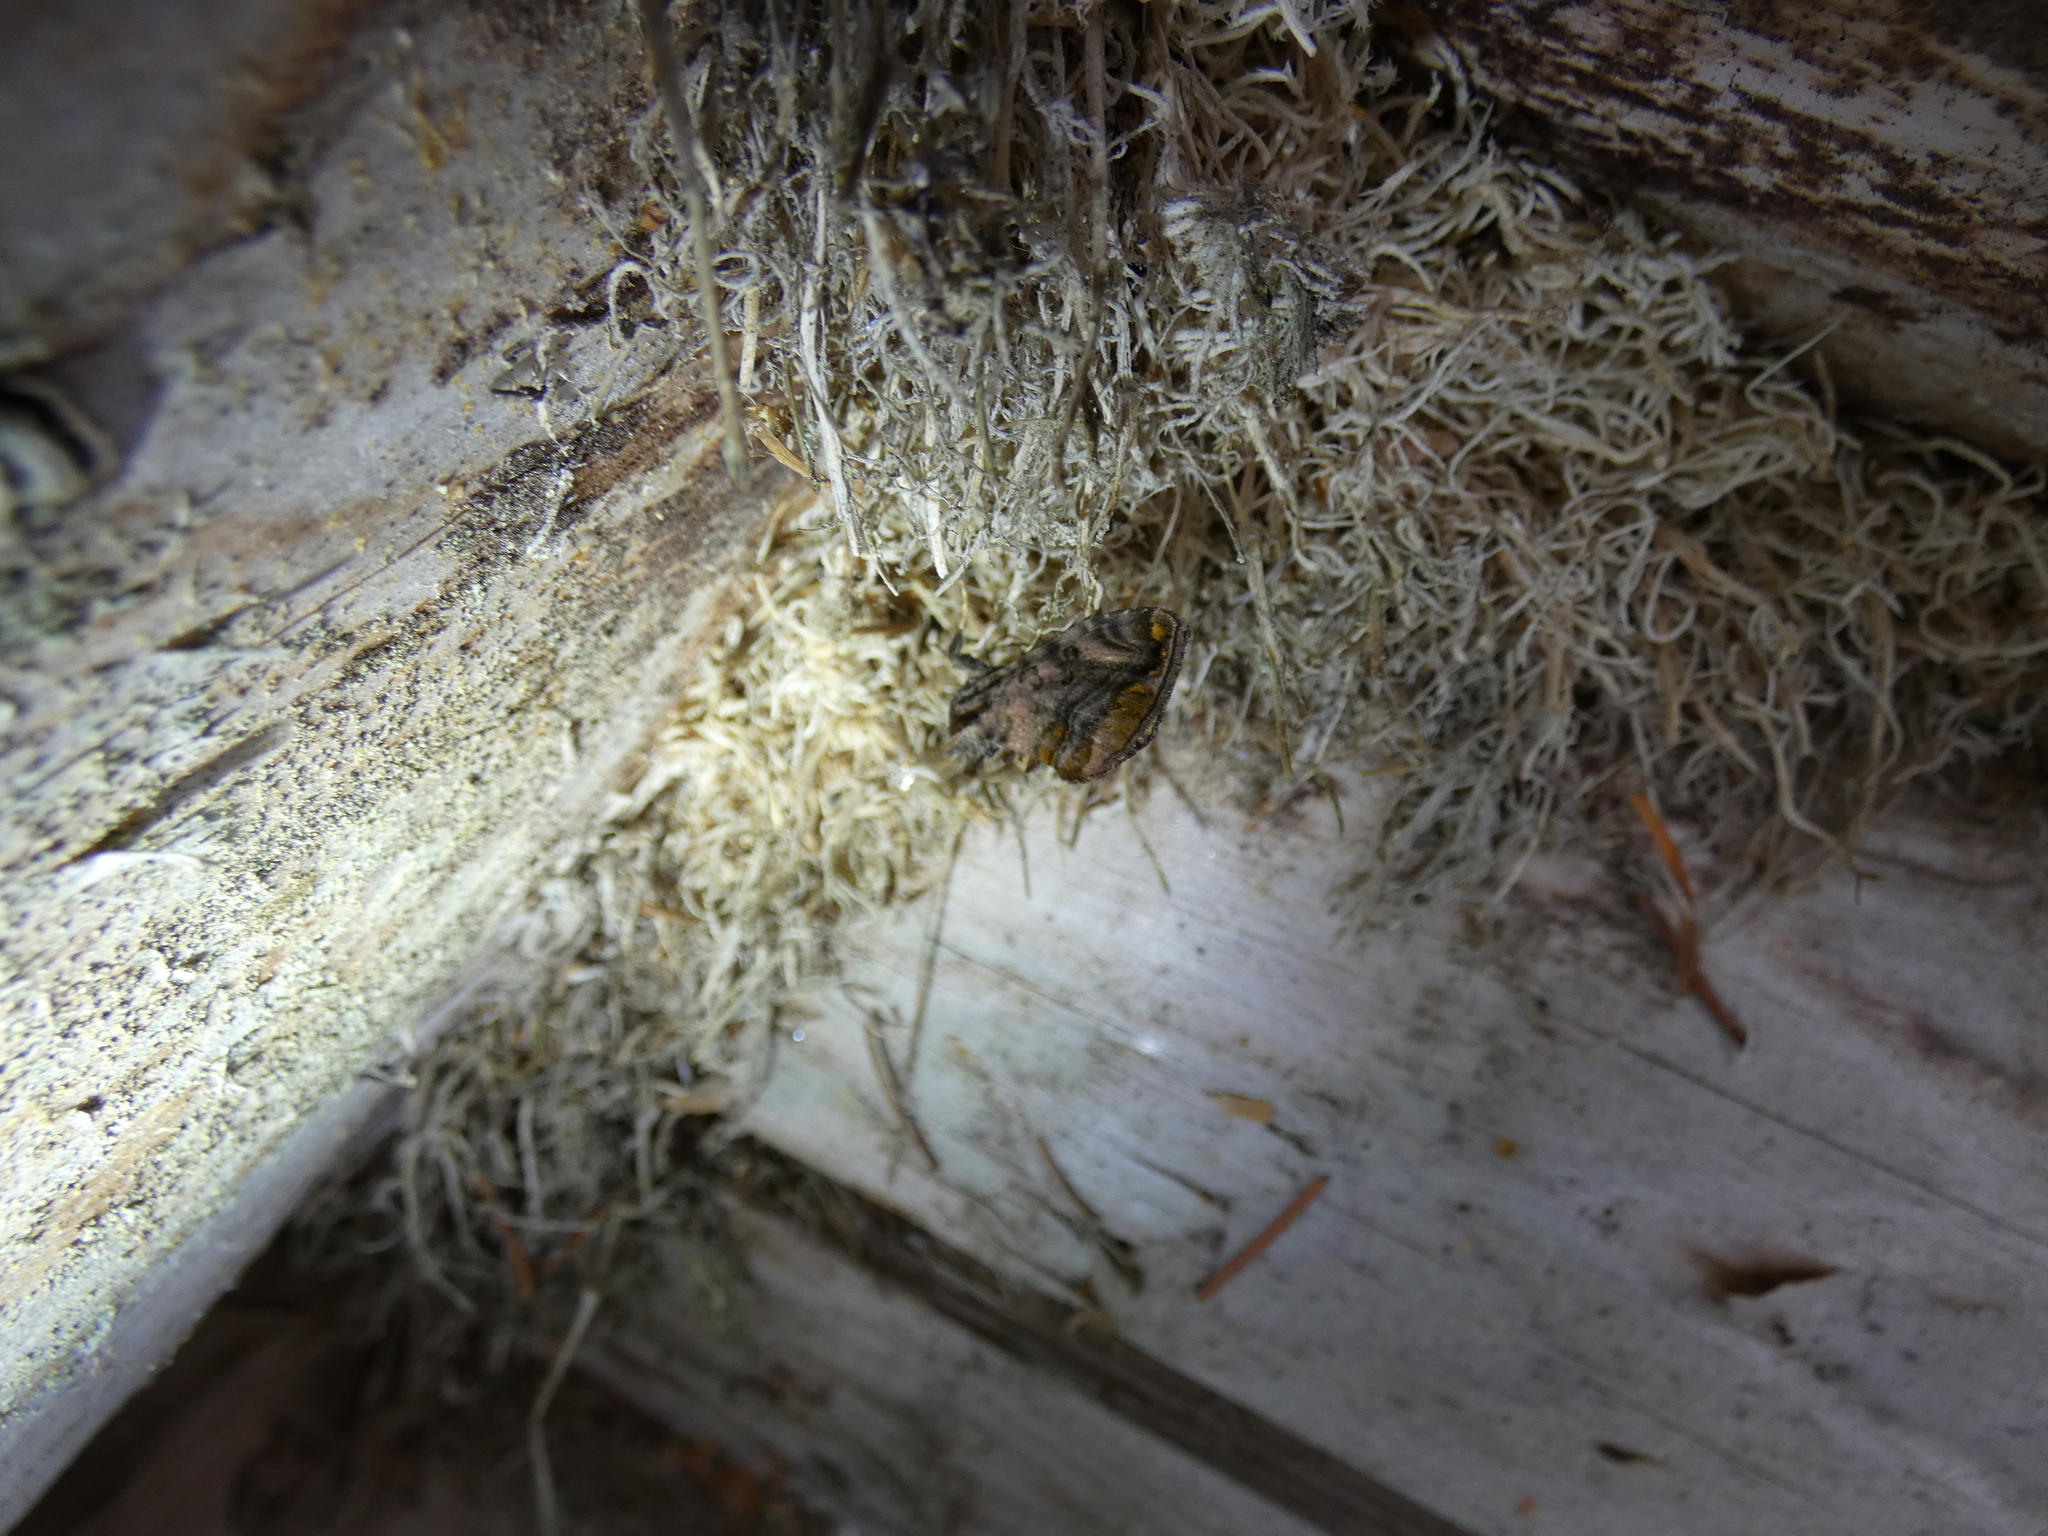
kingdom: Animalia
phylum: Arthropoda
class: Insecta
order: Lepidoptera
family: Noctuidae
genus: Lamprotes
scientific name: Lamprotes caureum
